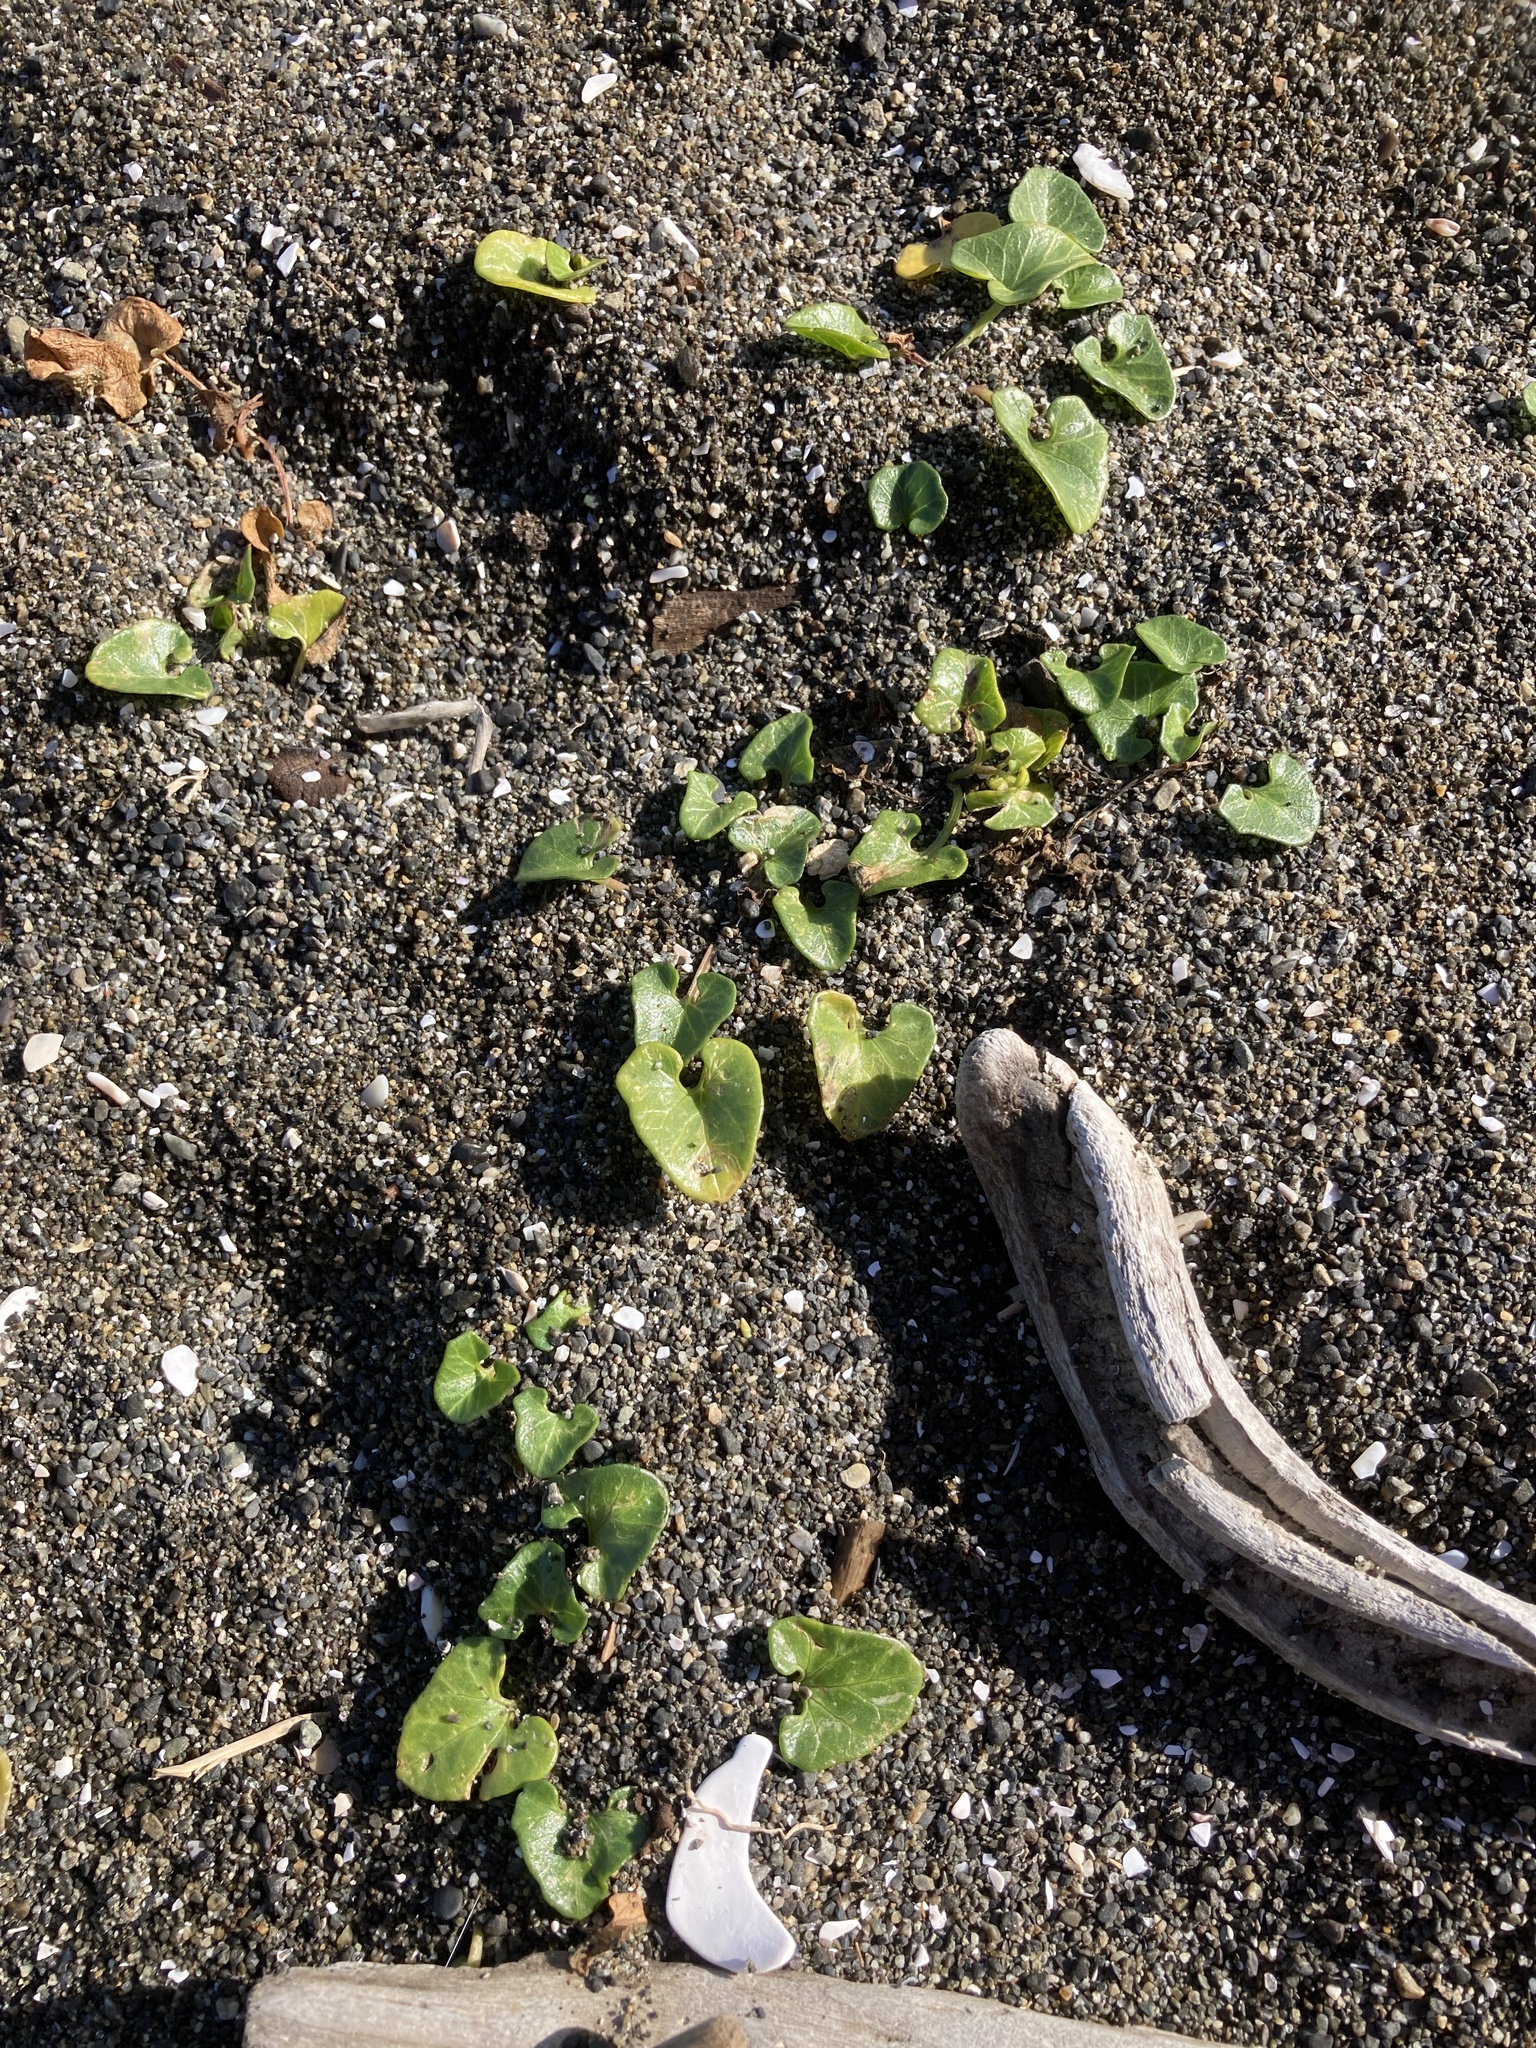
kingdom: Plantae
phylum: Tracheophyta
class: Magnoliopsida
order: Solanales
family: Convolvulaceae
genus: Calystegia
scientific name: Calystegia soldanella
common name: Sea bindweed
